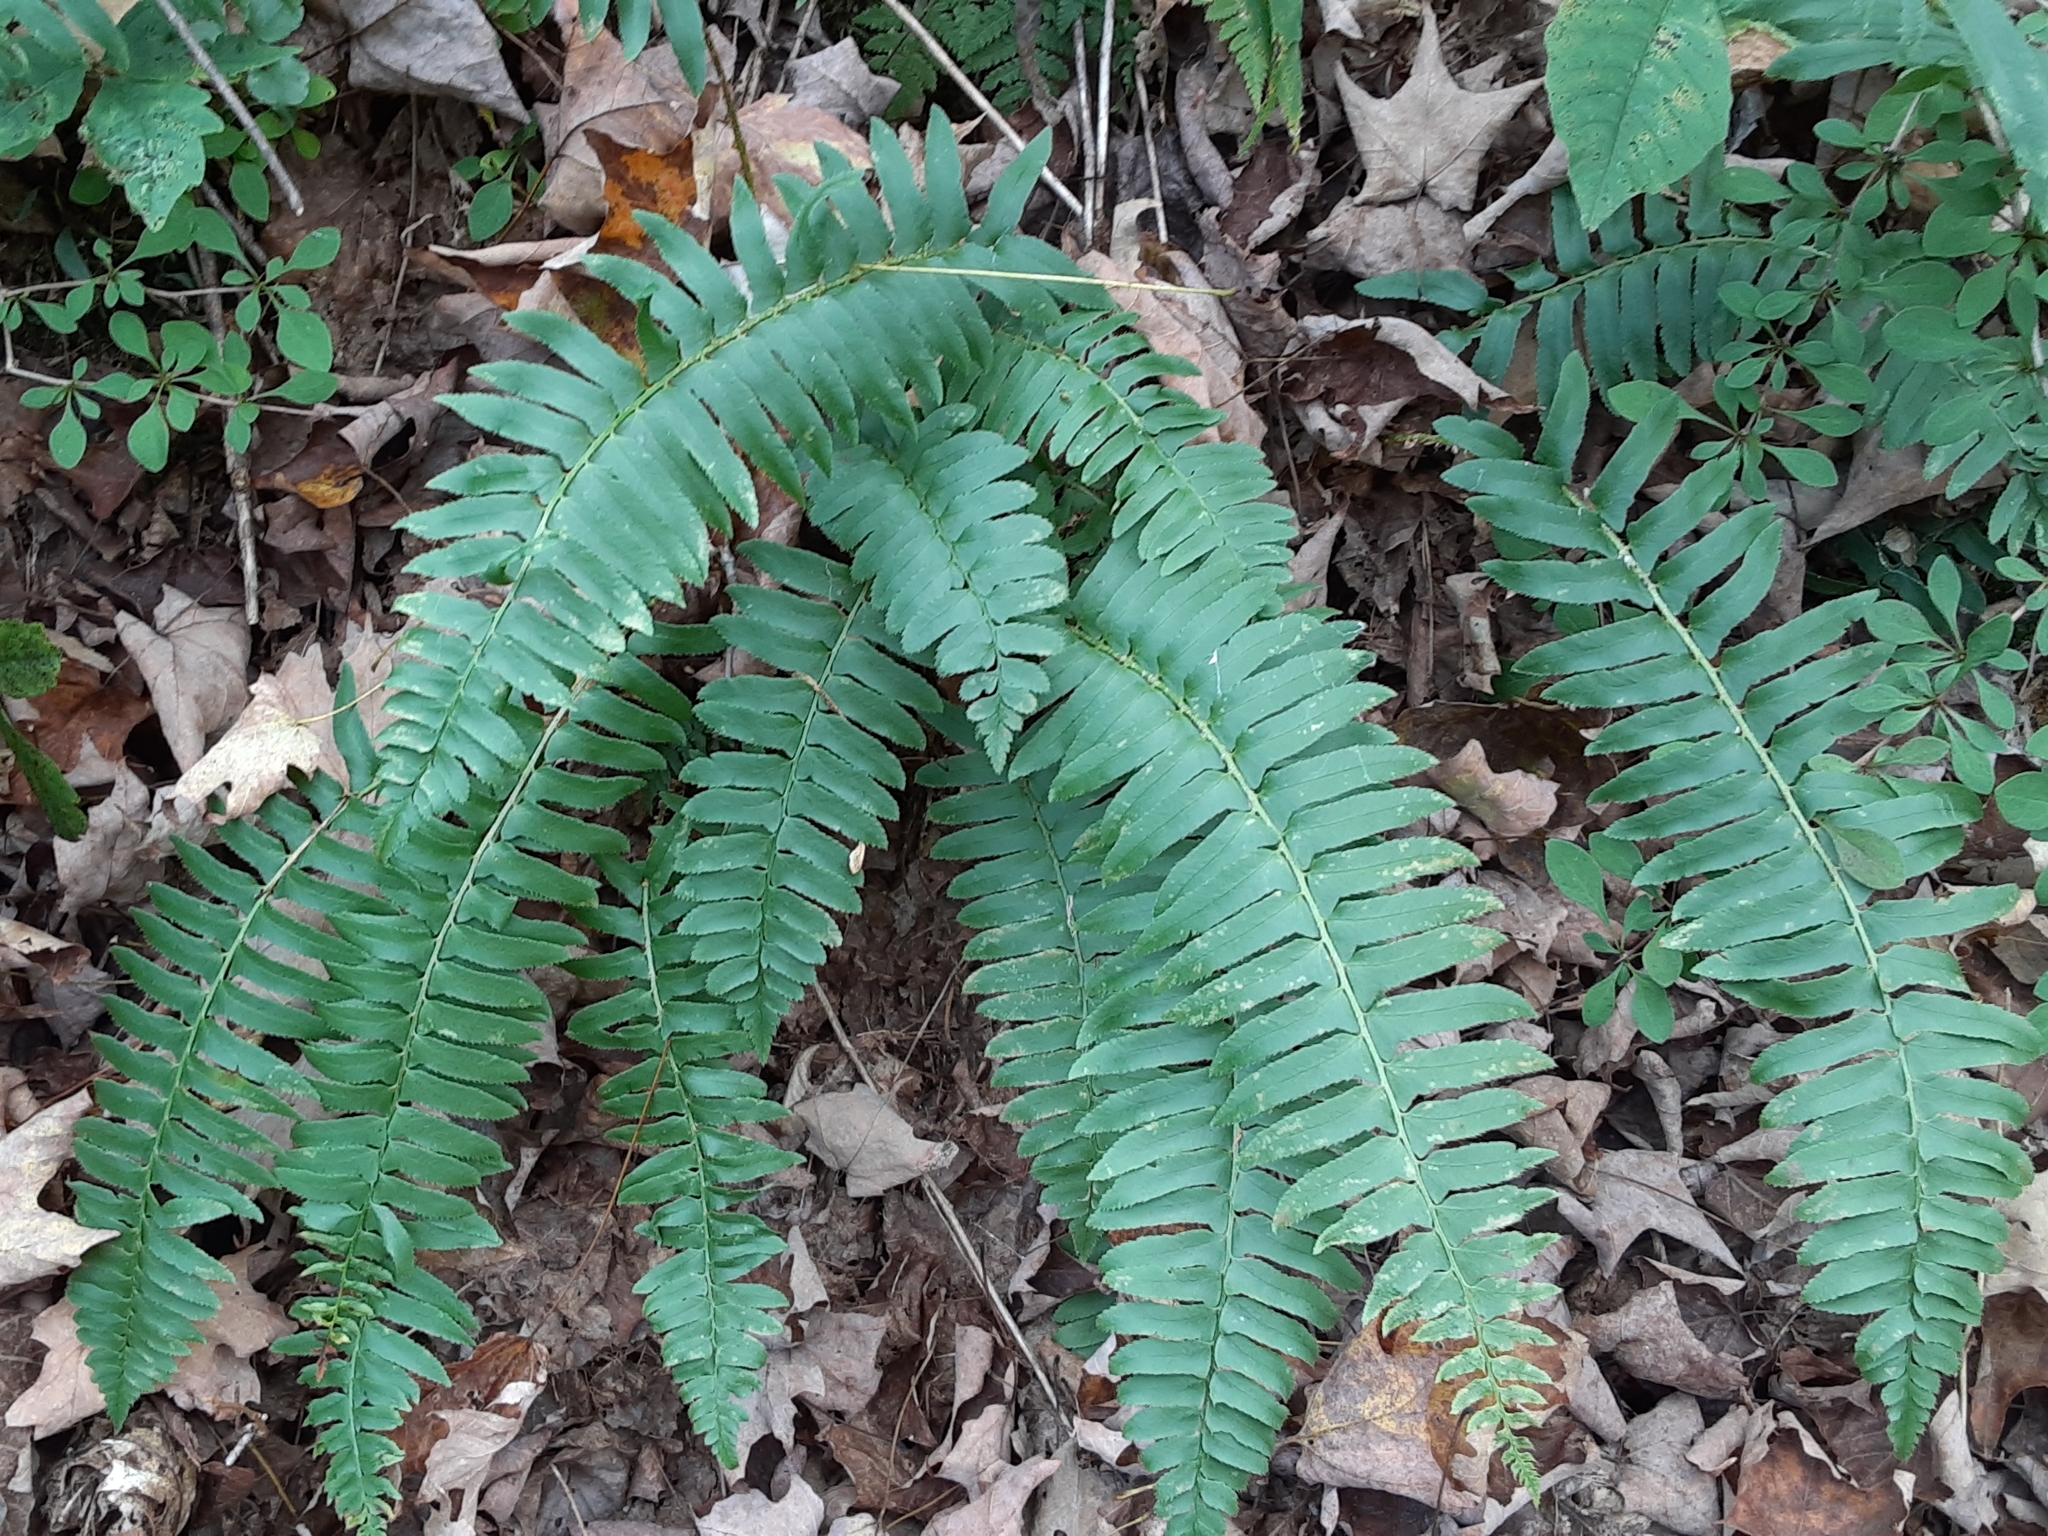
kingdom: Plantae
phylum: Tracheophyta
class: Polypodiopsida
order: Polypodiales
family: Dryopteridaceae
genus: Polystichum
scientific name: Polystichum acrostichoides
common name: Christmas fern
